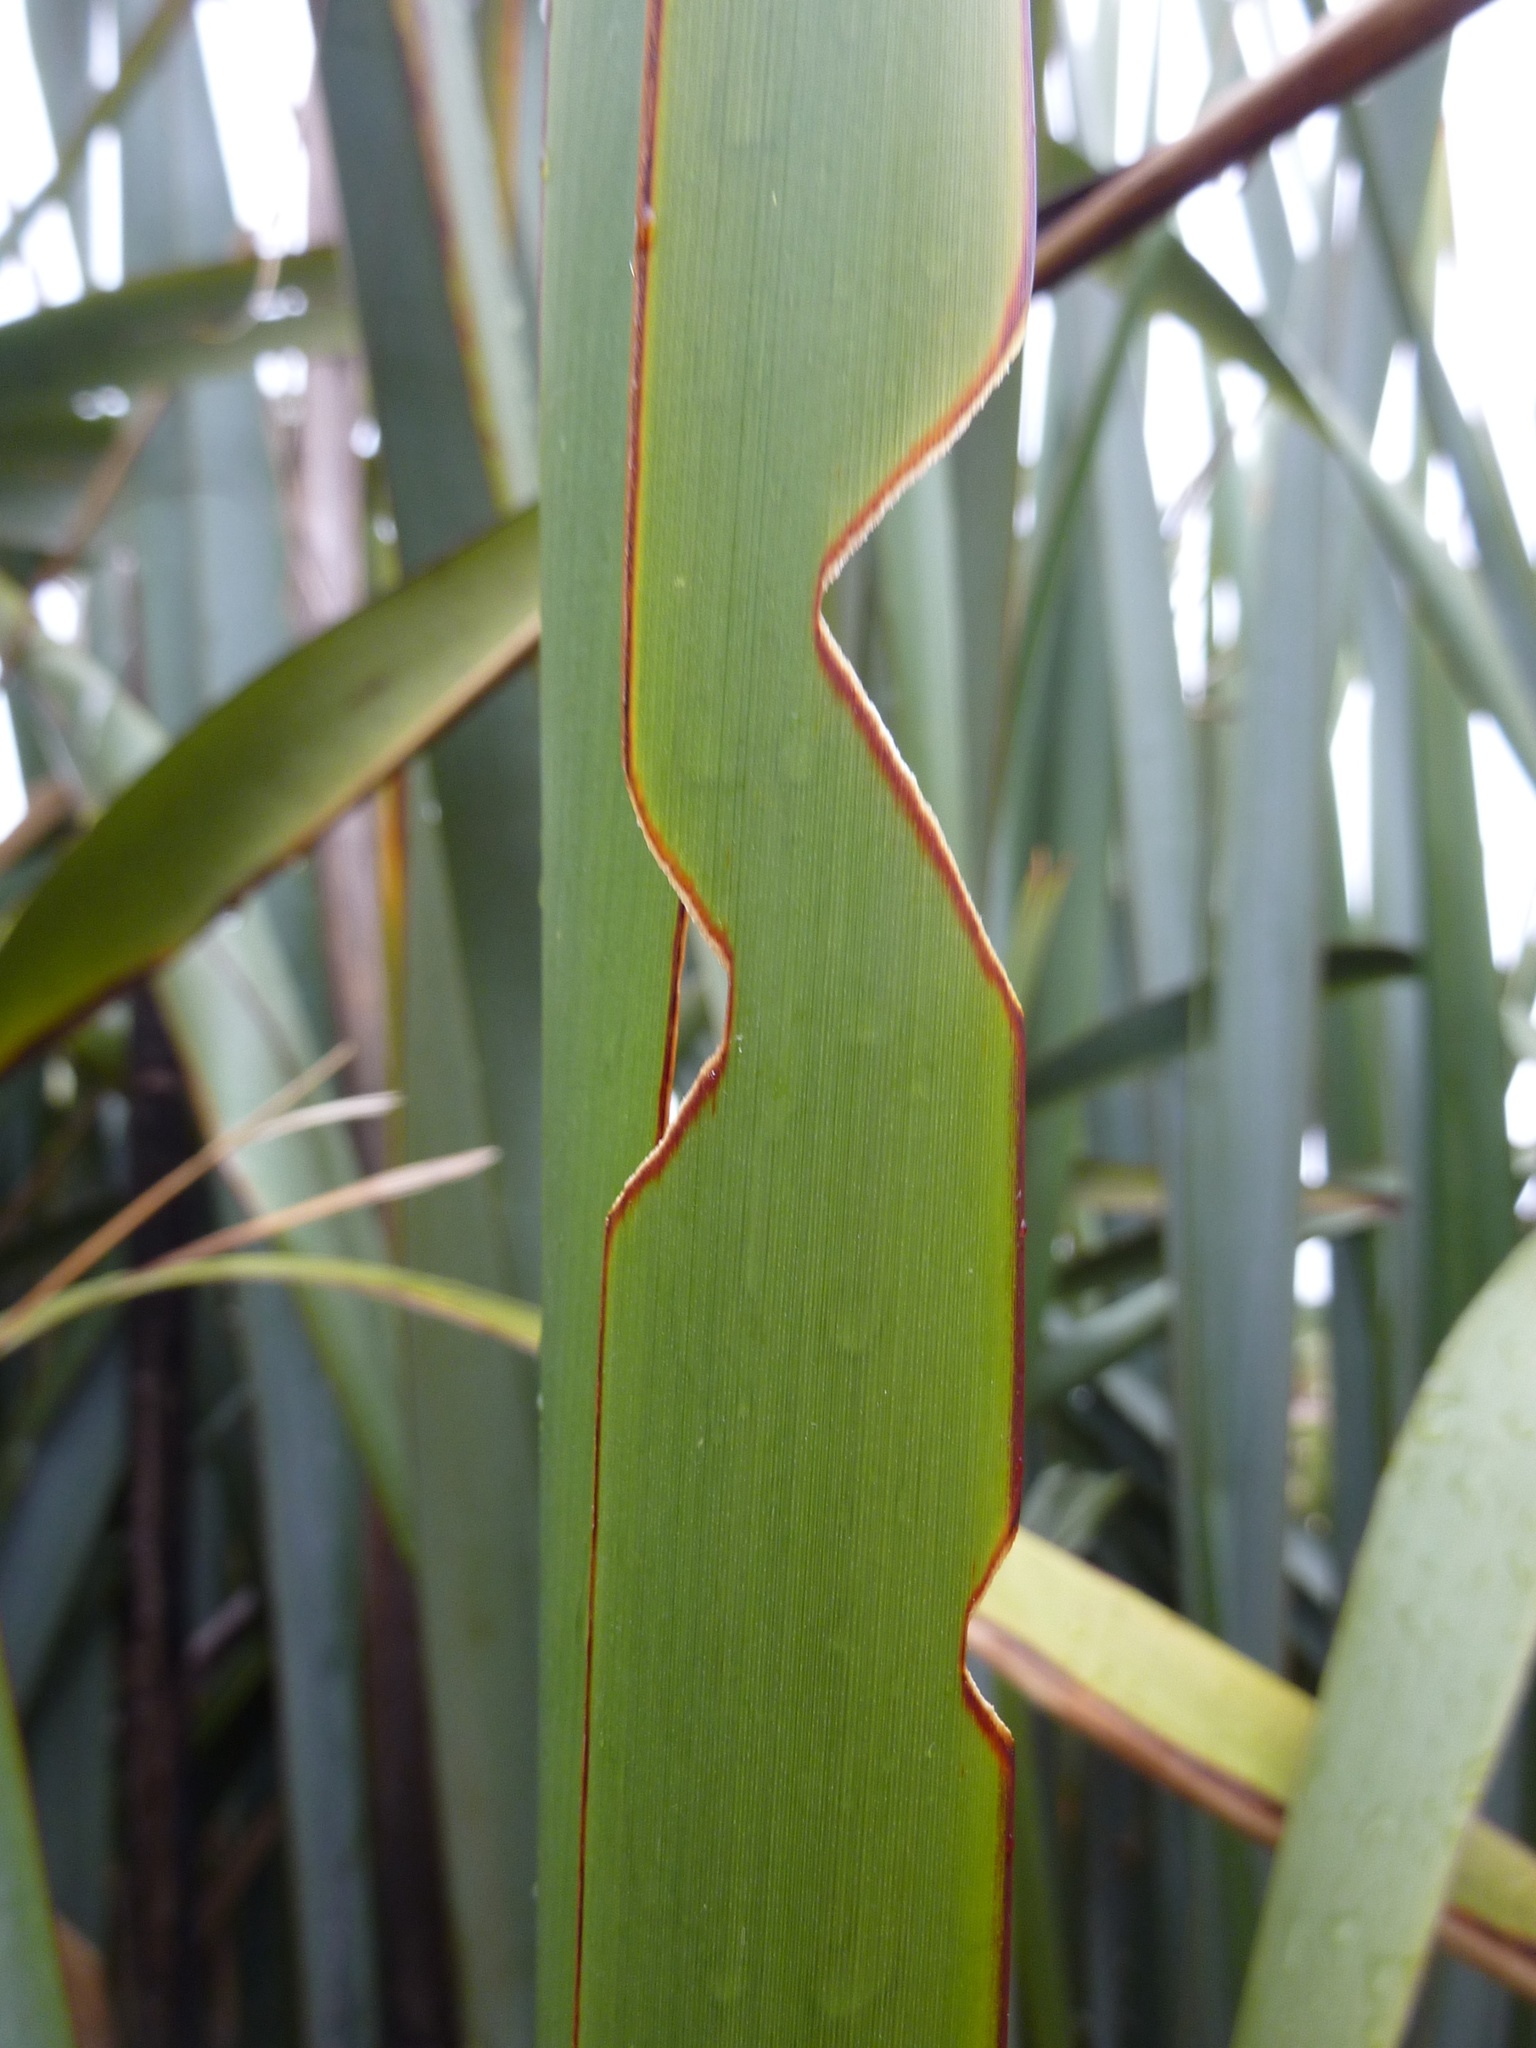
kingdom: Animalia
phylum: Arthropoda
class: Insecta
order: Lepidoptera
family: Noctuidae
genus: Ichneutica
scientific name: Ichneutica
